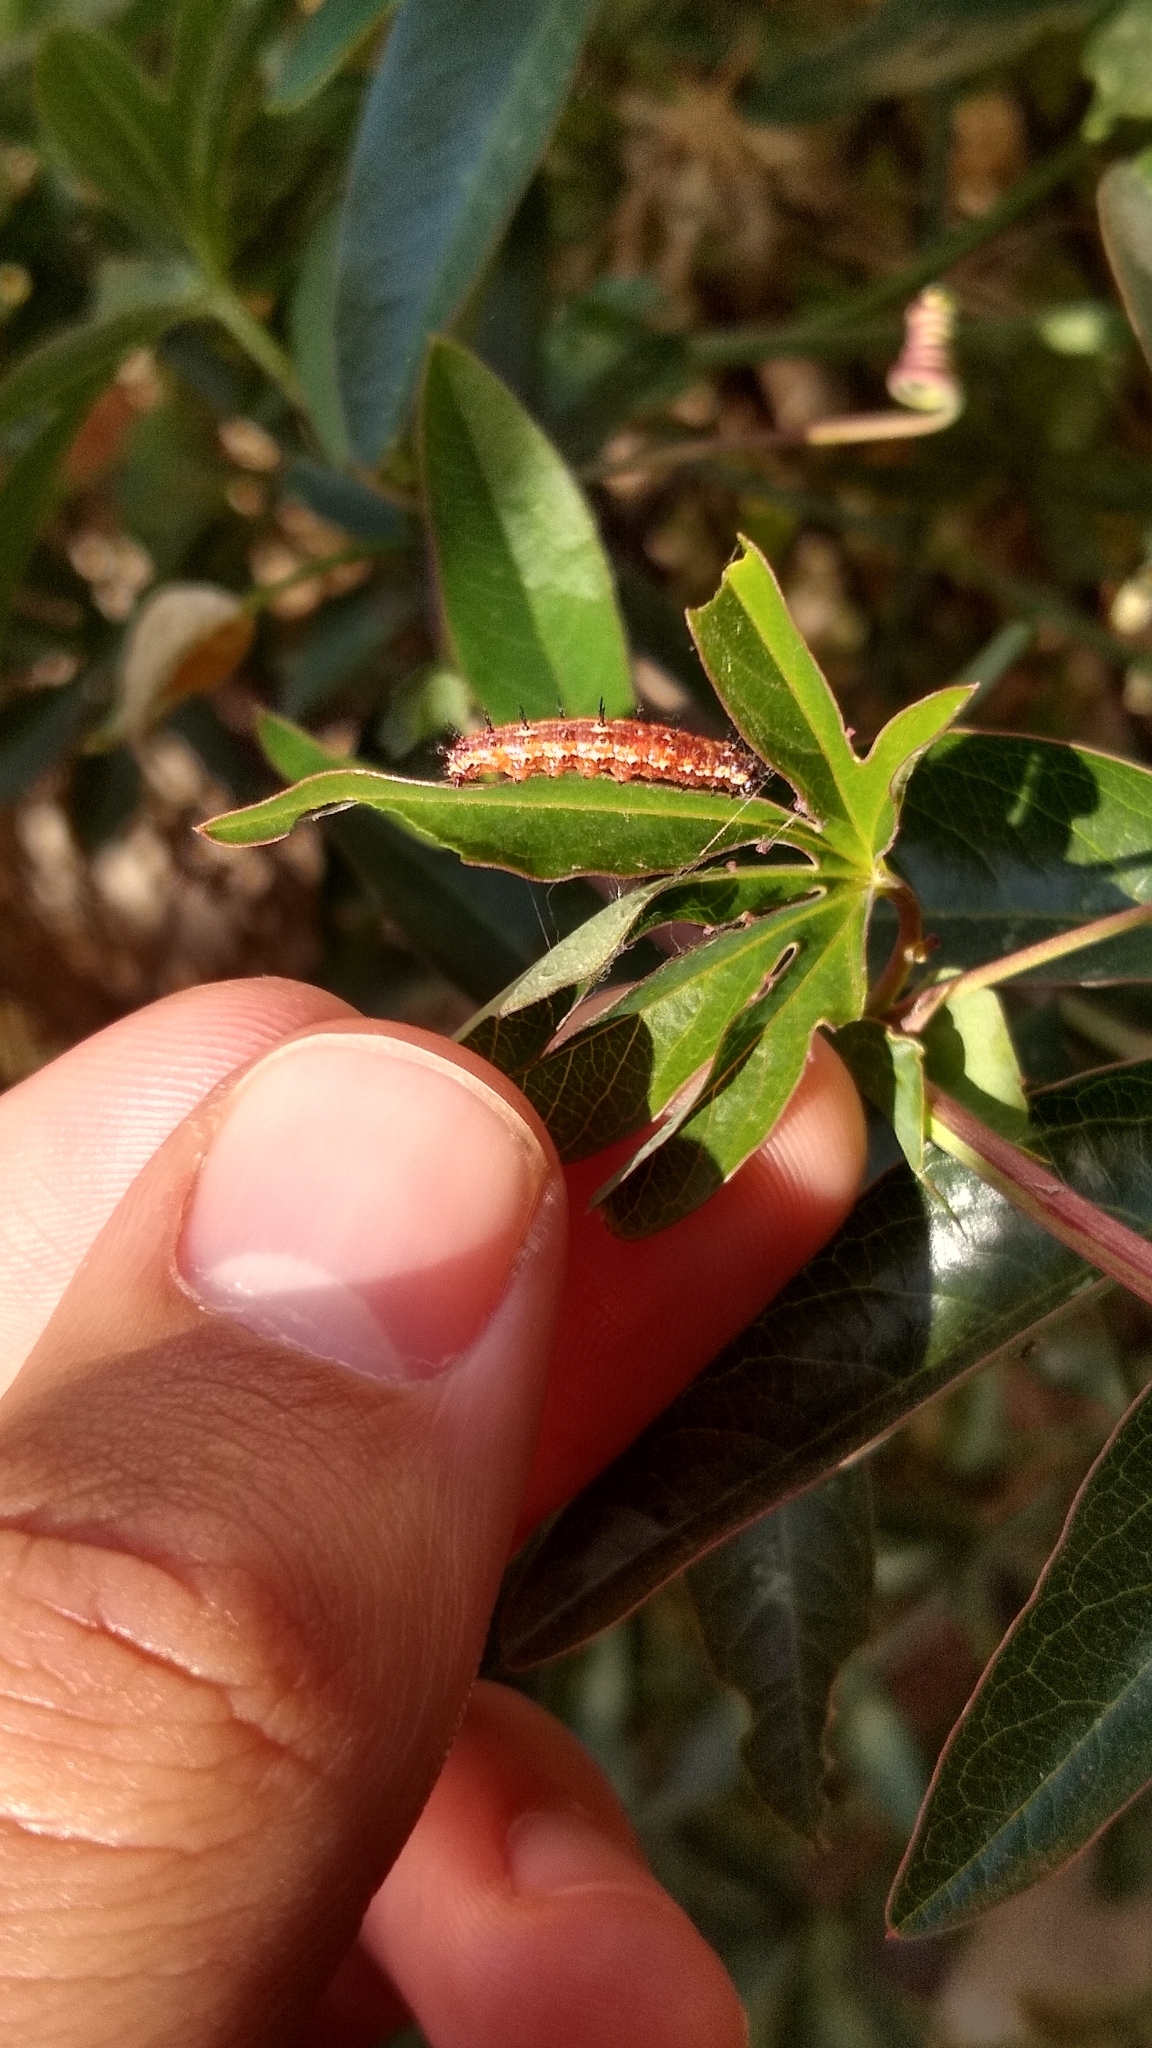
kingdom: Animalia
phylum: Arthropoda
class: Insecta
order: Lepidoptera
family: Nymphalidae
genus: Dione
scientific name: Dione vanillae
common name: Gulf fritillary
